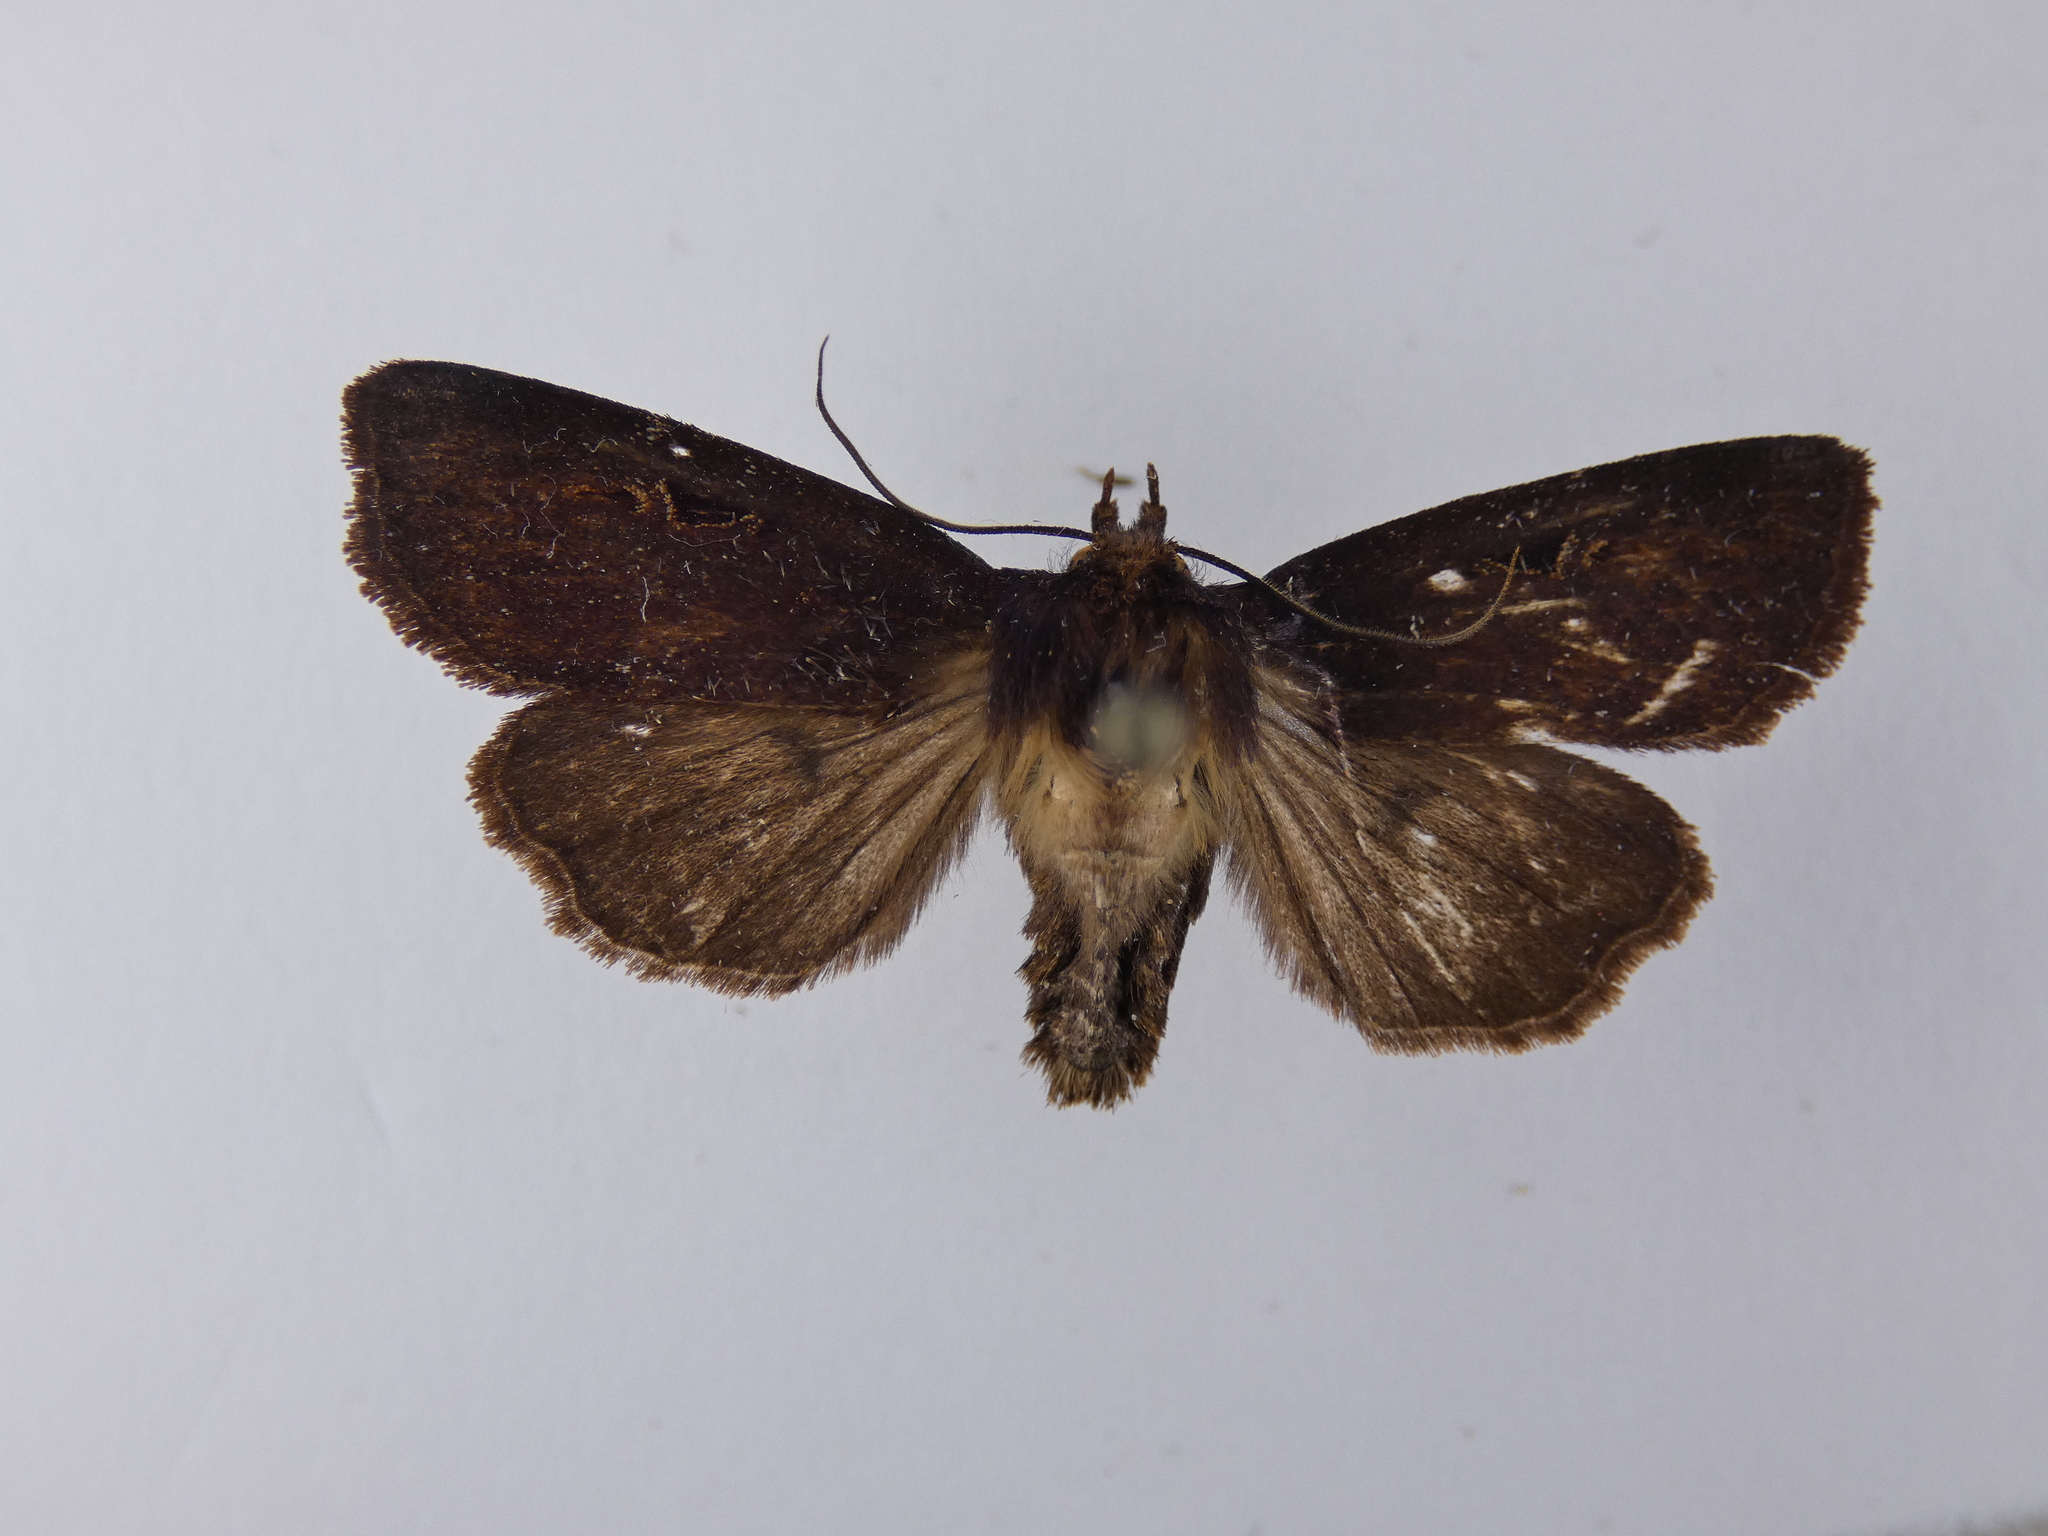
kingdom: Animalia
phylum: Arthropoda
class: Insecta
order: Lepidoptera
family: Noctuidae
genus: Austramathes
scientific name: Austramathes purpurea
